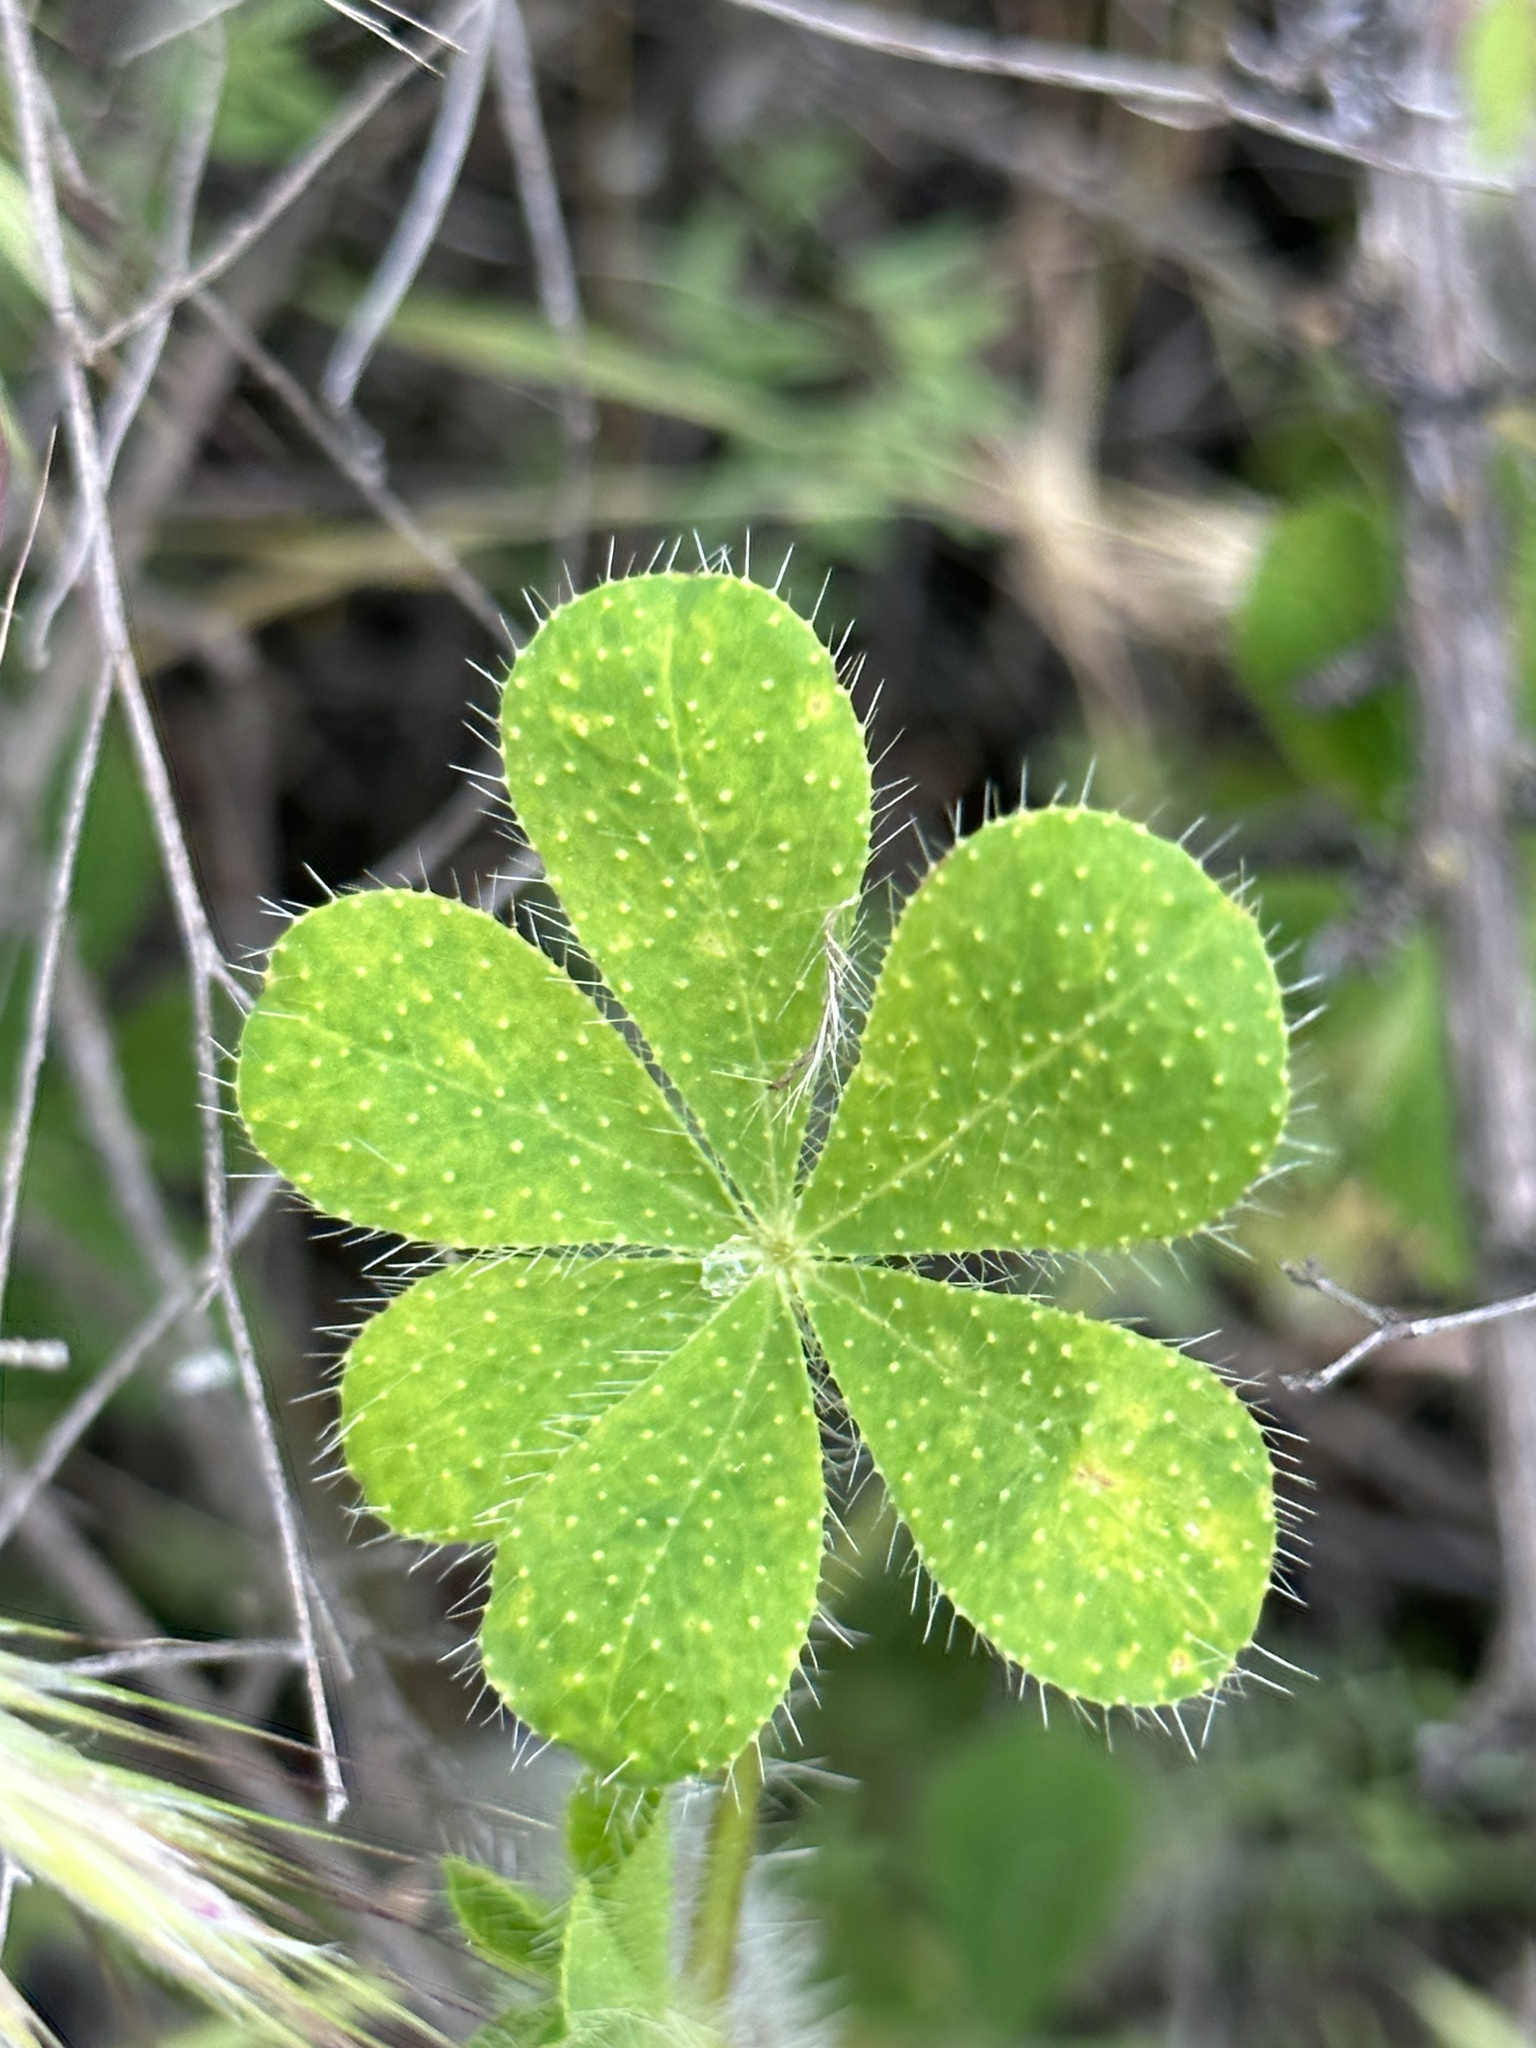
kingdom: Plantae
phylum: Tracheophyta
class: Magnoliopsida
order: Fabales
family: Fabaceae
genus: Lupinus
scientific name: Lupinus hirsutissimus
